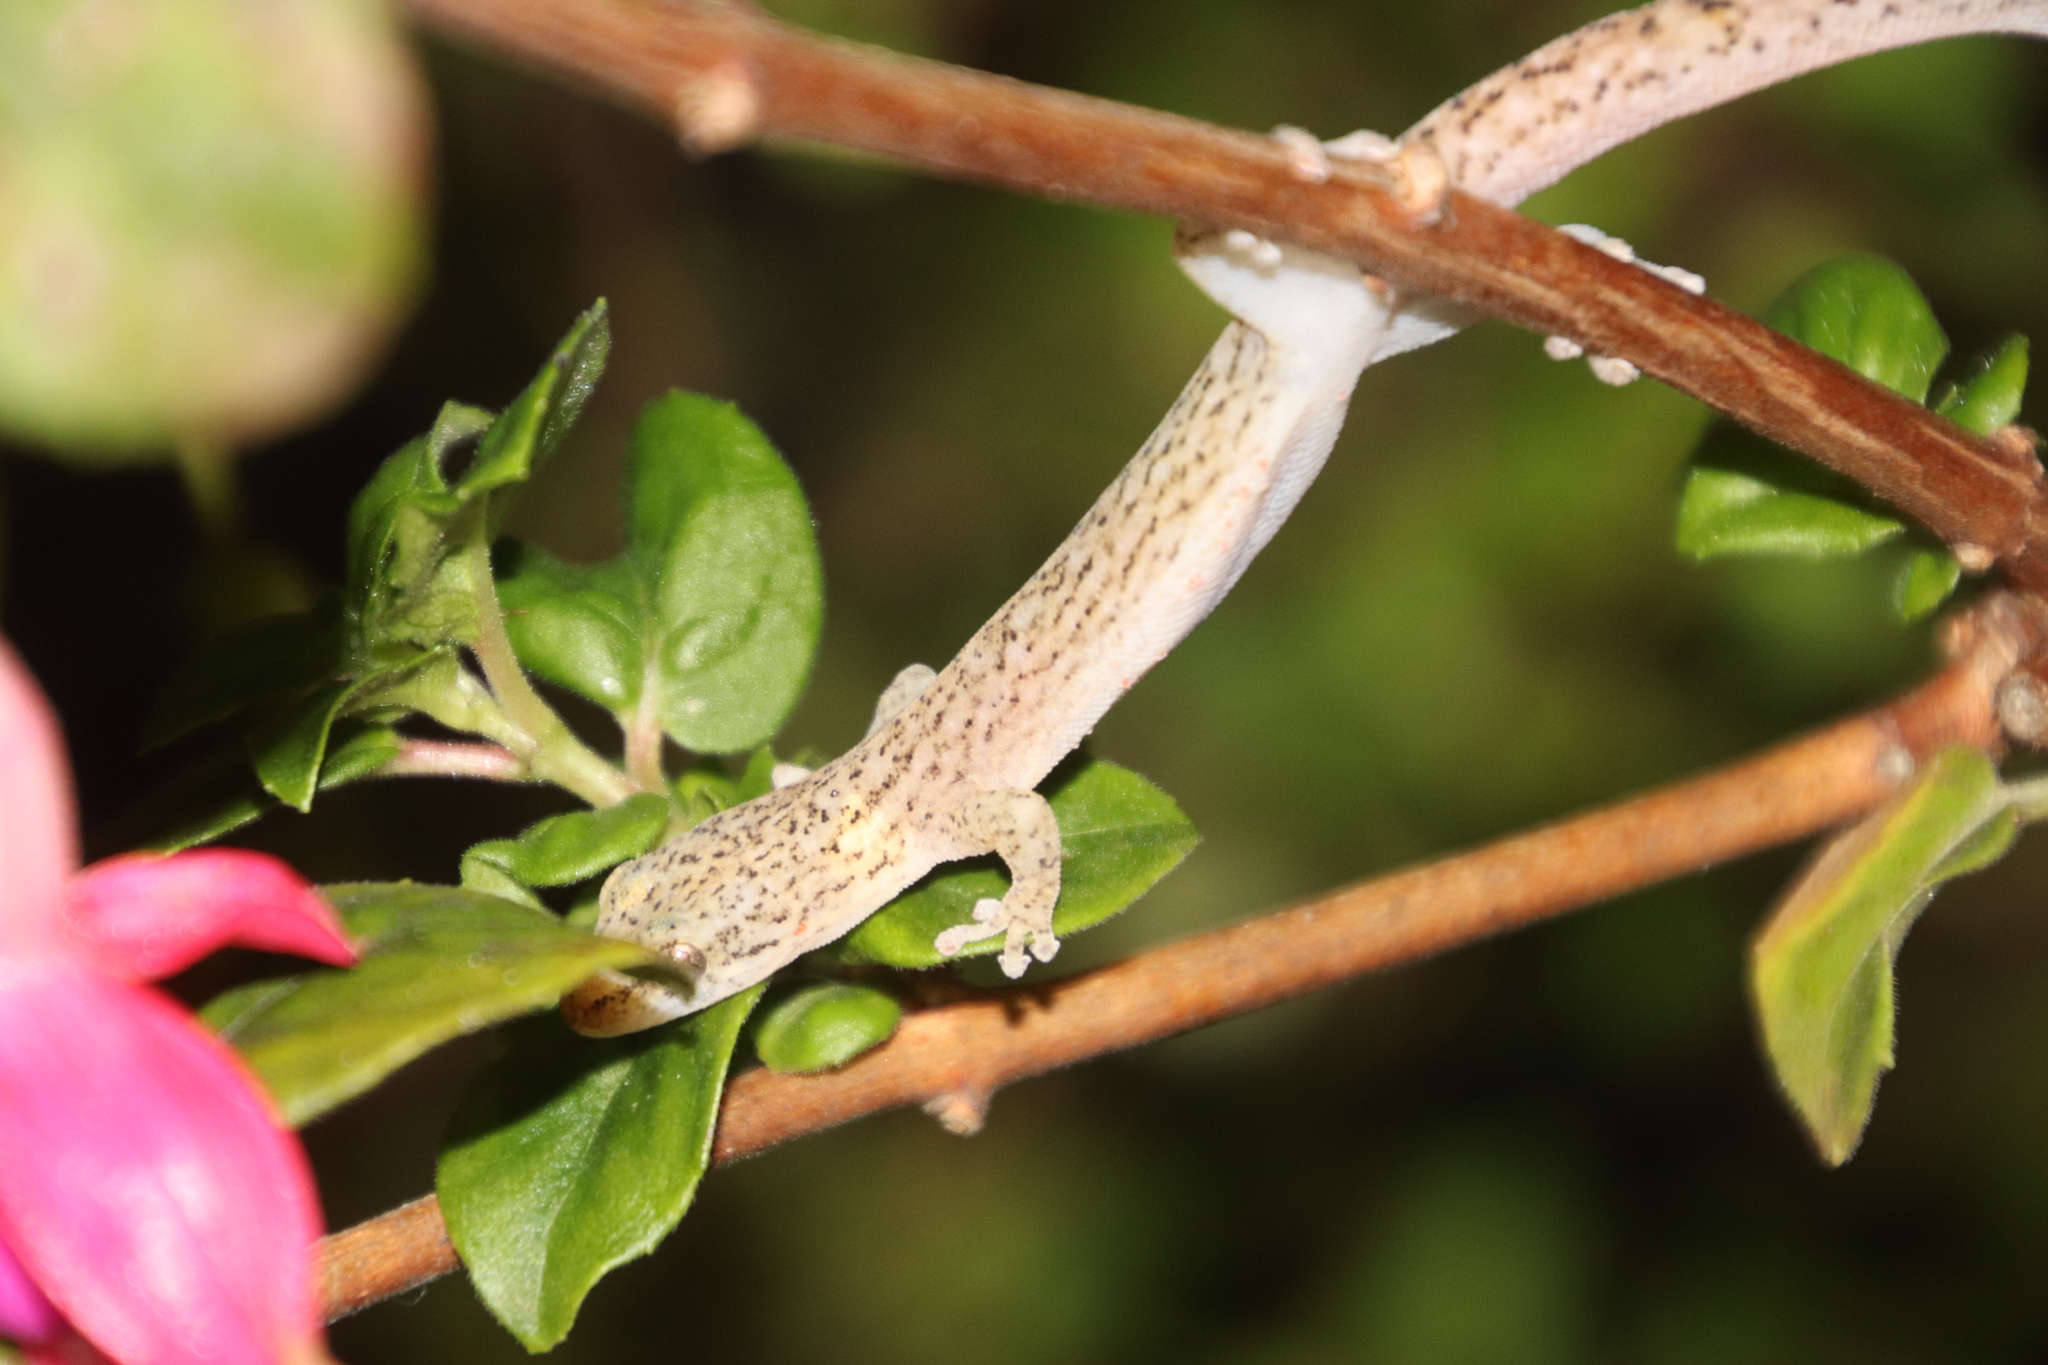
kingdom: Animalia
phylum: Chordata
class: Squamata
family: Gekkonidae
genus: Afrogecko
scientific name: Afrogecko porphyreus
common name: Marbled leaf-toed gecko
